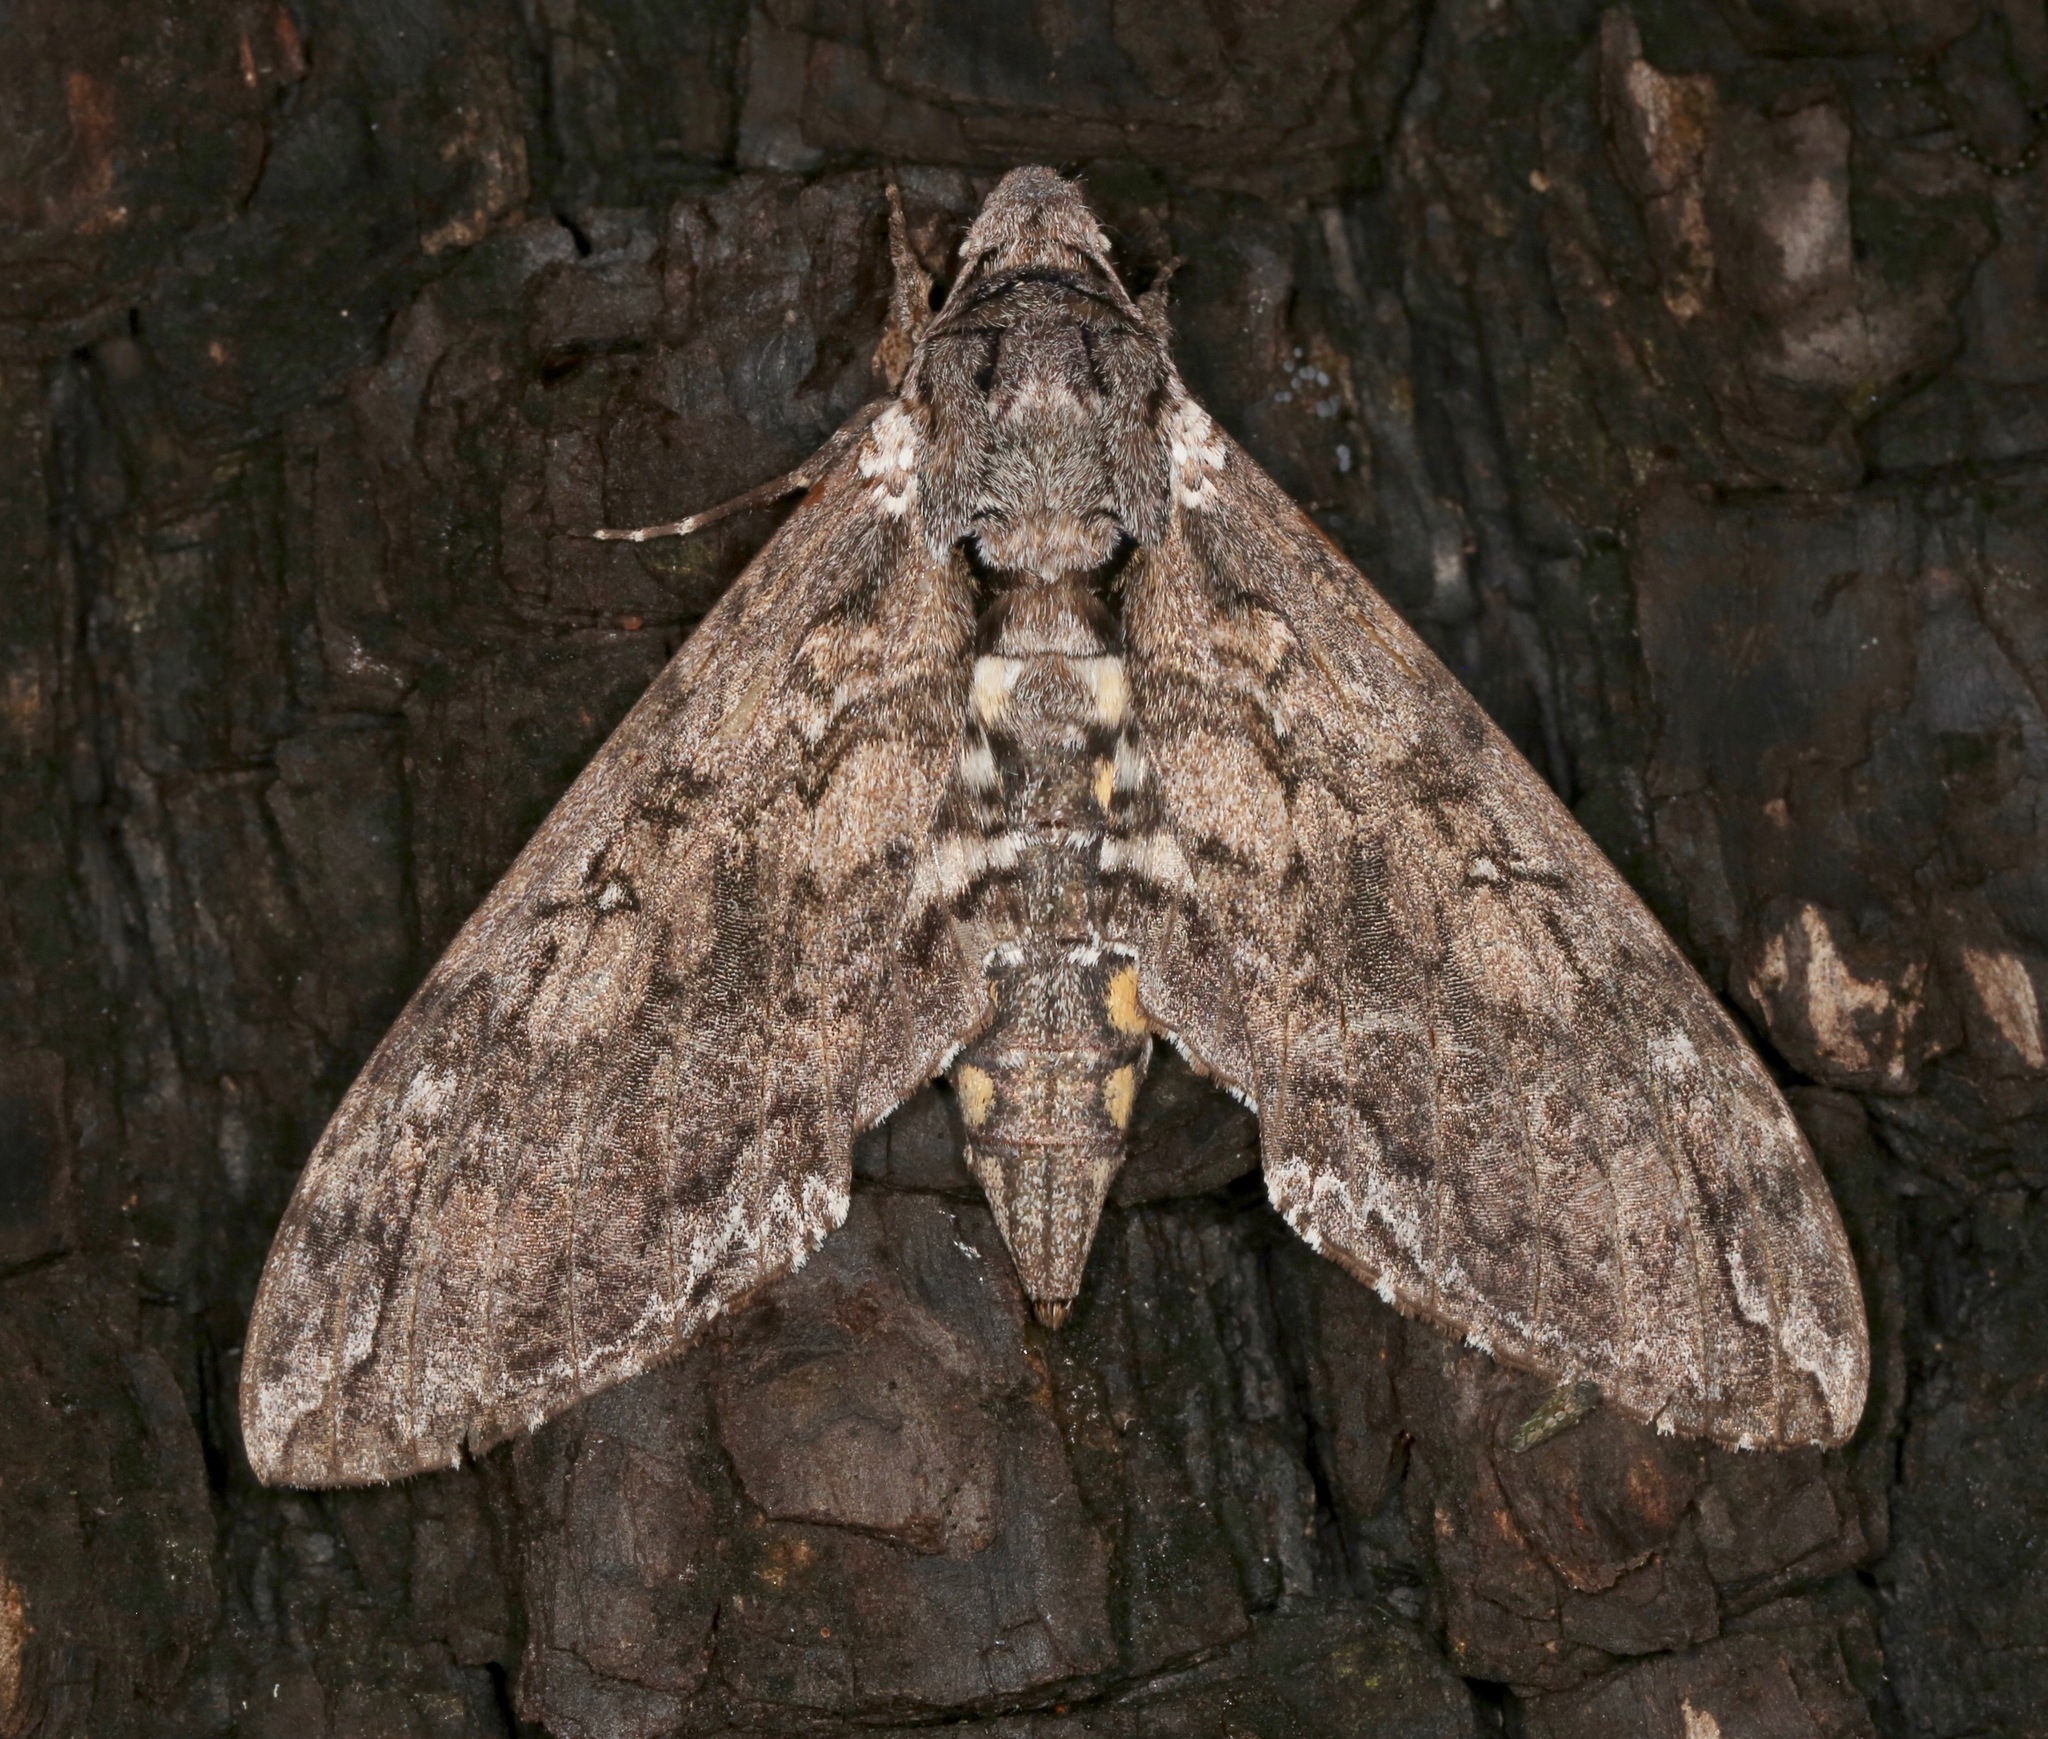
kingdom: Animalia
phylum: Arthropoda
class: Insecta
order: Lepidoptera
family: Sphingidae
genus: Manduca
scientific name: Manduca sexta
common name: Carolina sphinx
